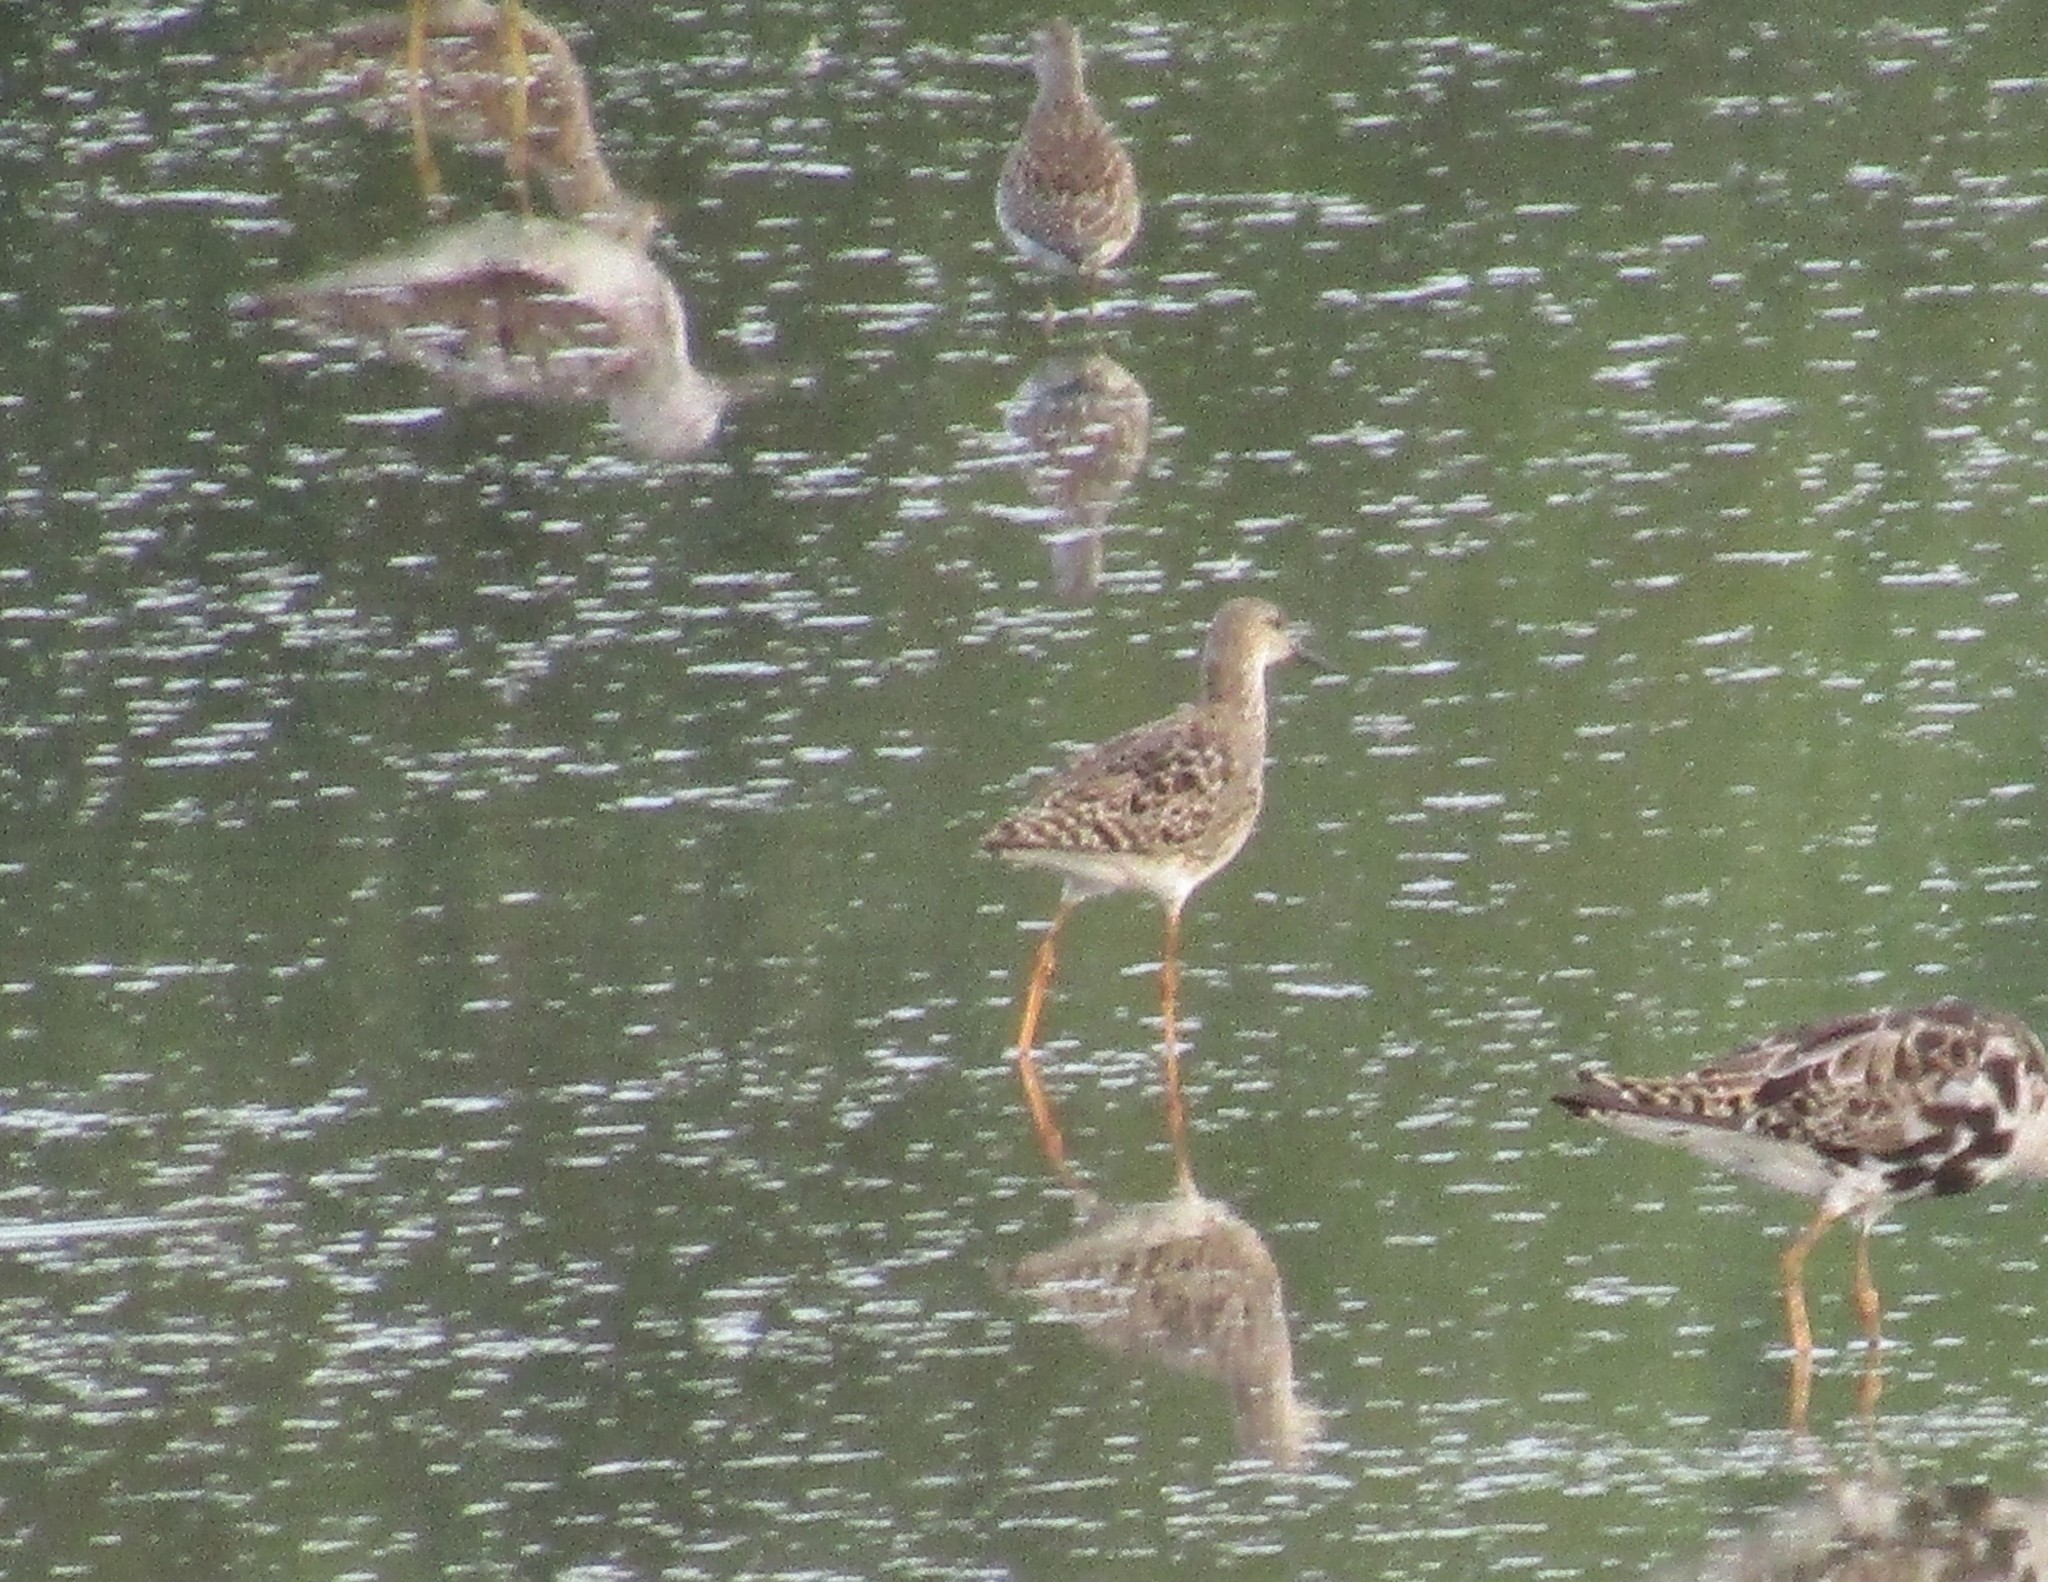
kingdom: Animalia
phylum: Chordata
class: Aves
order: Charadriiformes
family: Scolopacidae
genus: Tringa
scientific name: Tringa totanus
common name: Common redshank
